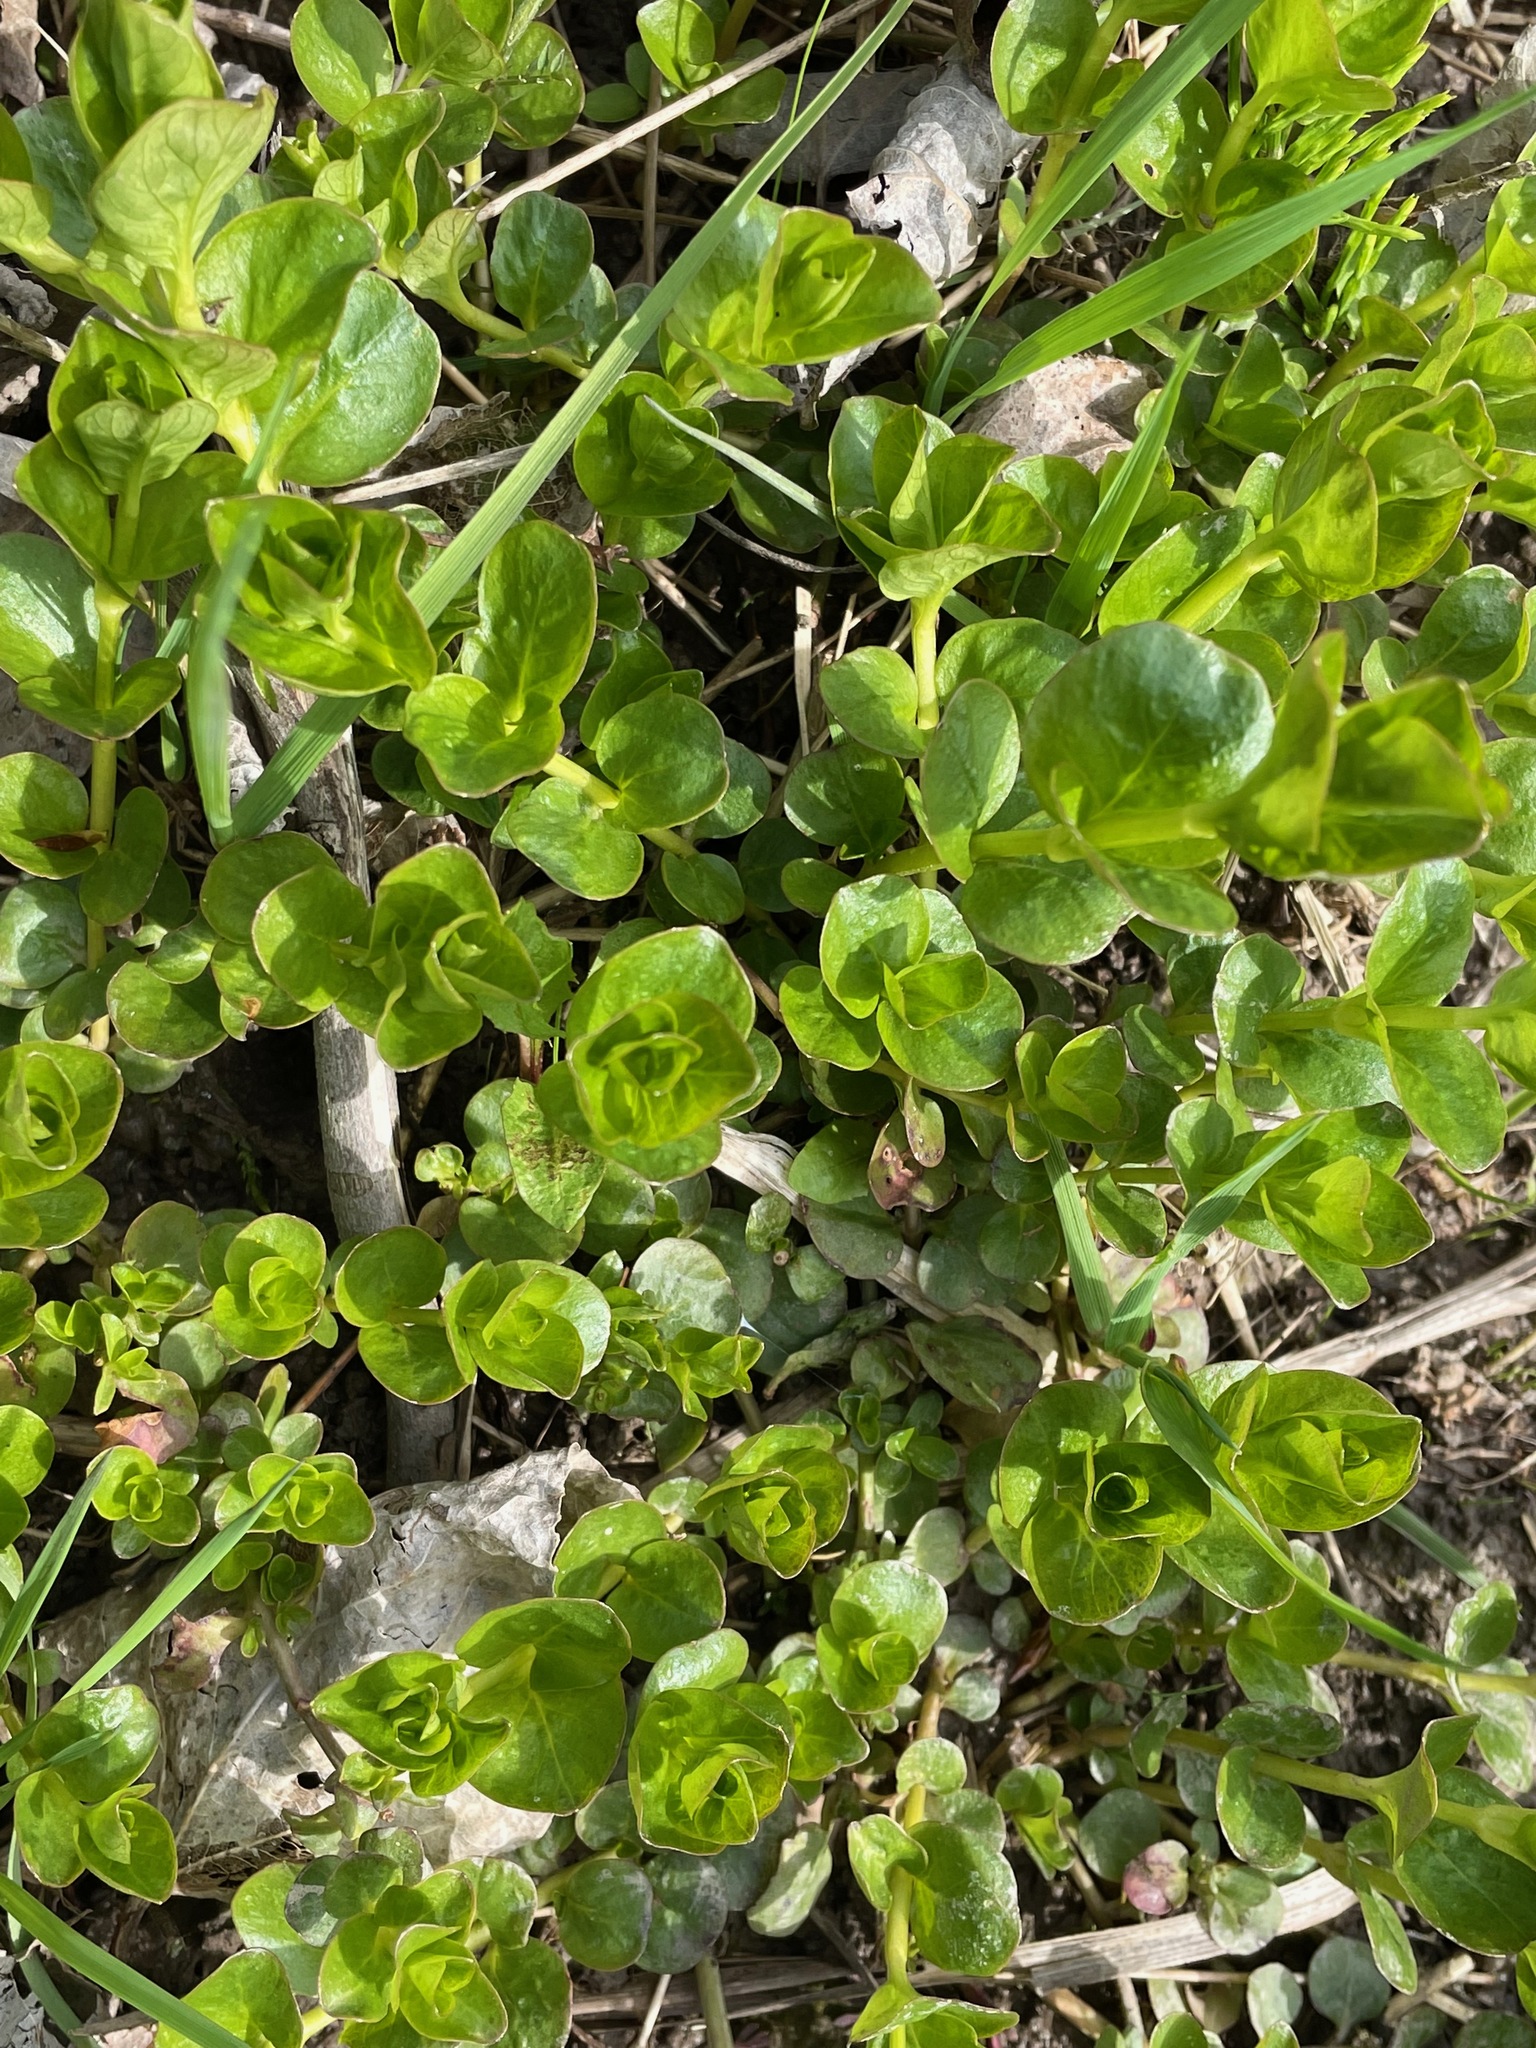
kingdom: Plantae
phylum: Tracheophyta
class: Magnoliopsida
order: Ericales
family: Primulaceae
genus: Lysimachia
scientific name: Lysimachia nummularia
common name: Moneywort
